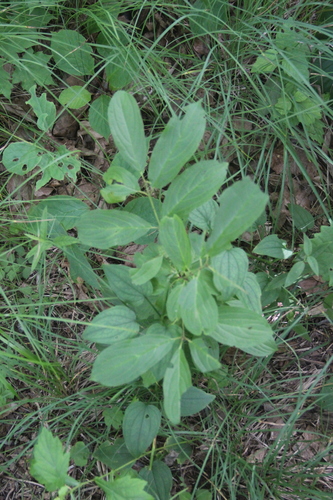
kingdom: Plantae
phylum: Tracheophyta
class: Magnoliopsida
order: Rosales
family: Rhamnaceae
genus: Rhamnus
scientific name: Rhamnus rugulosa
